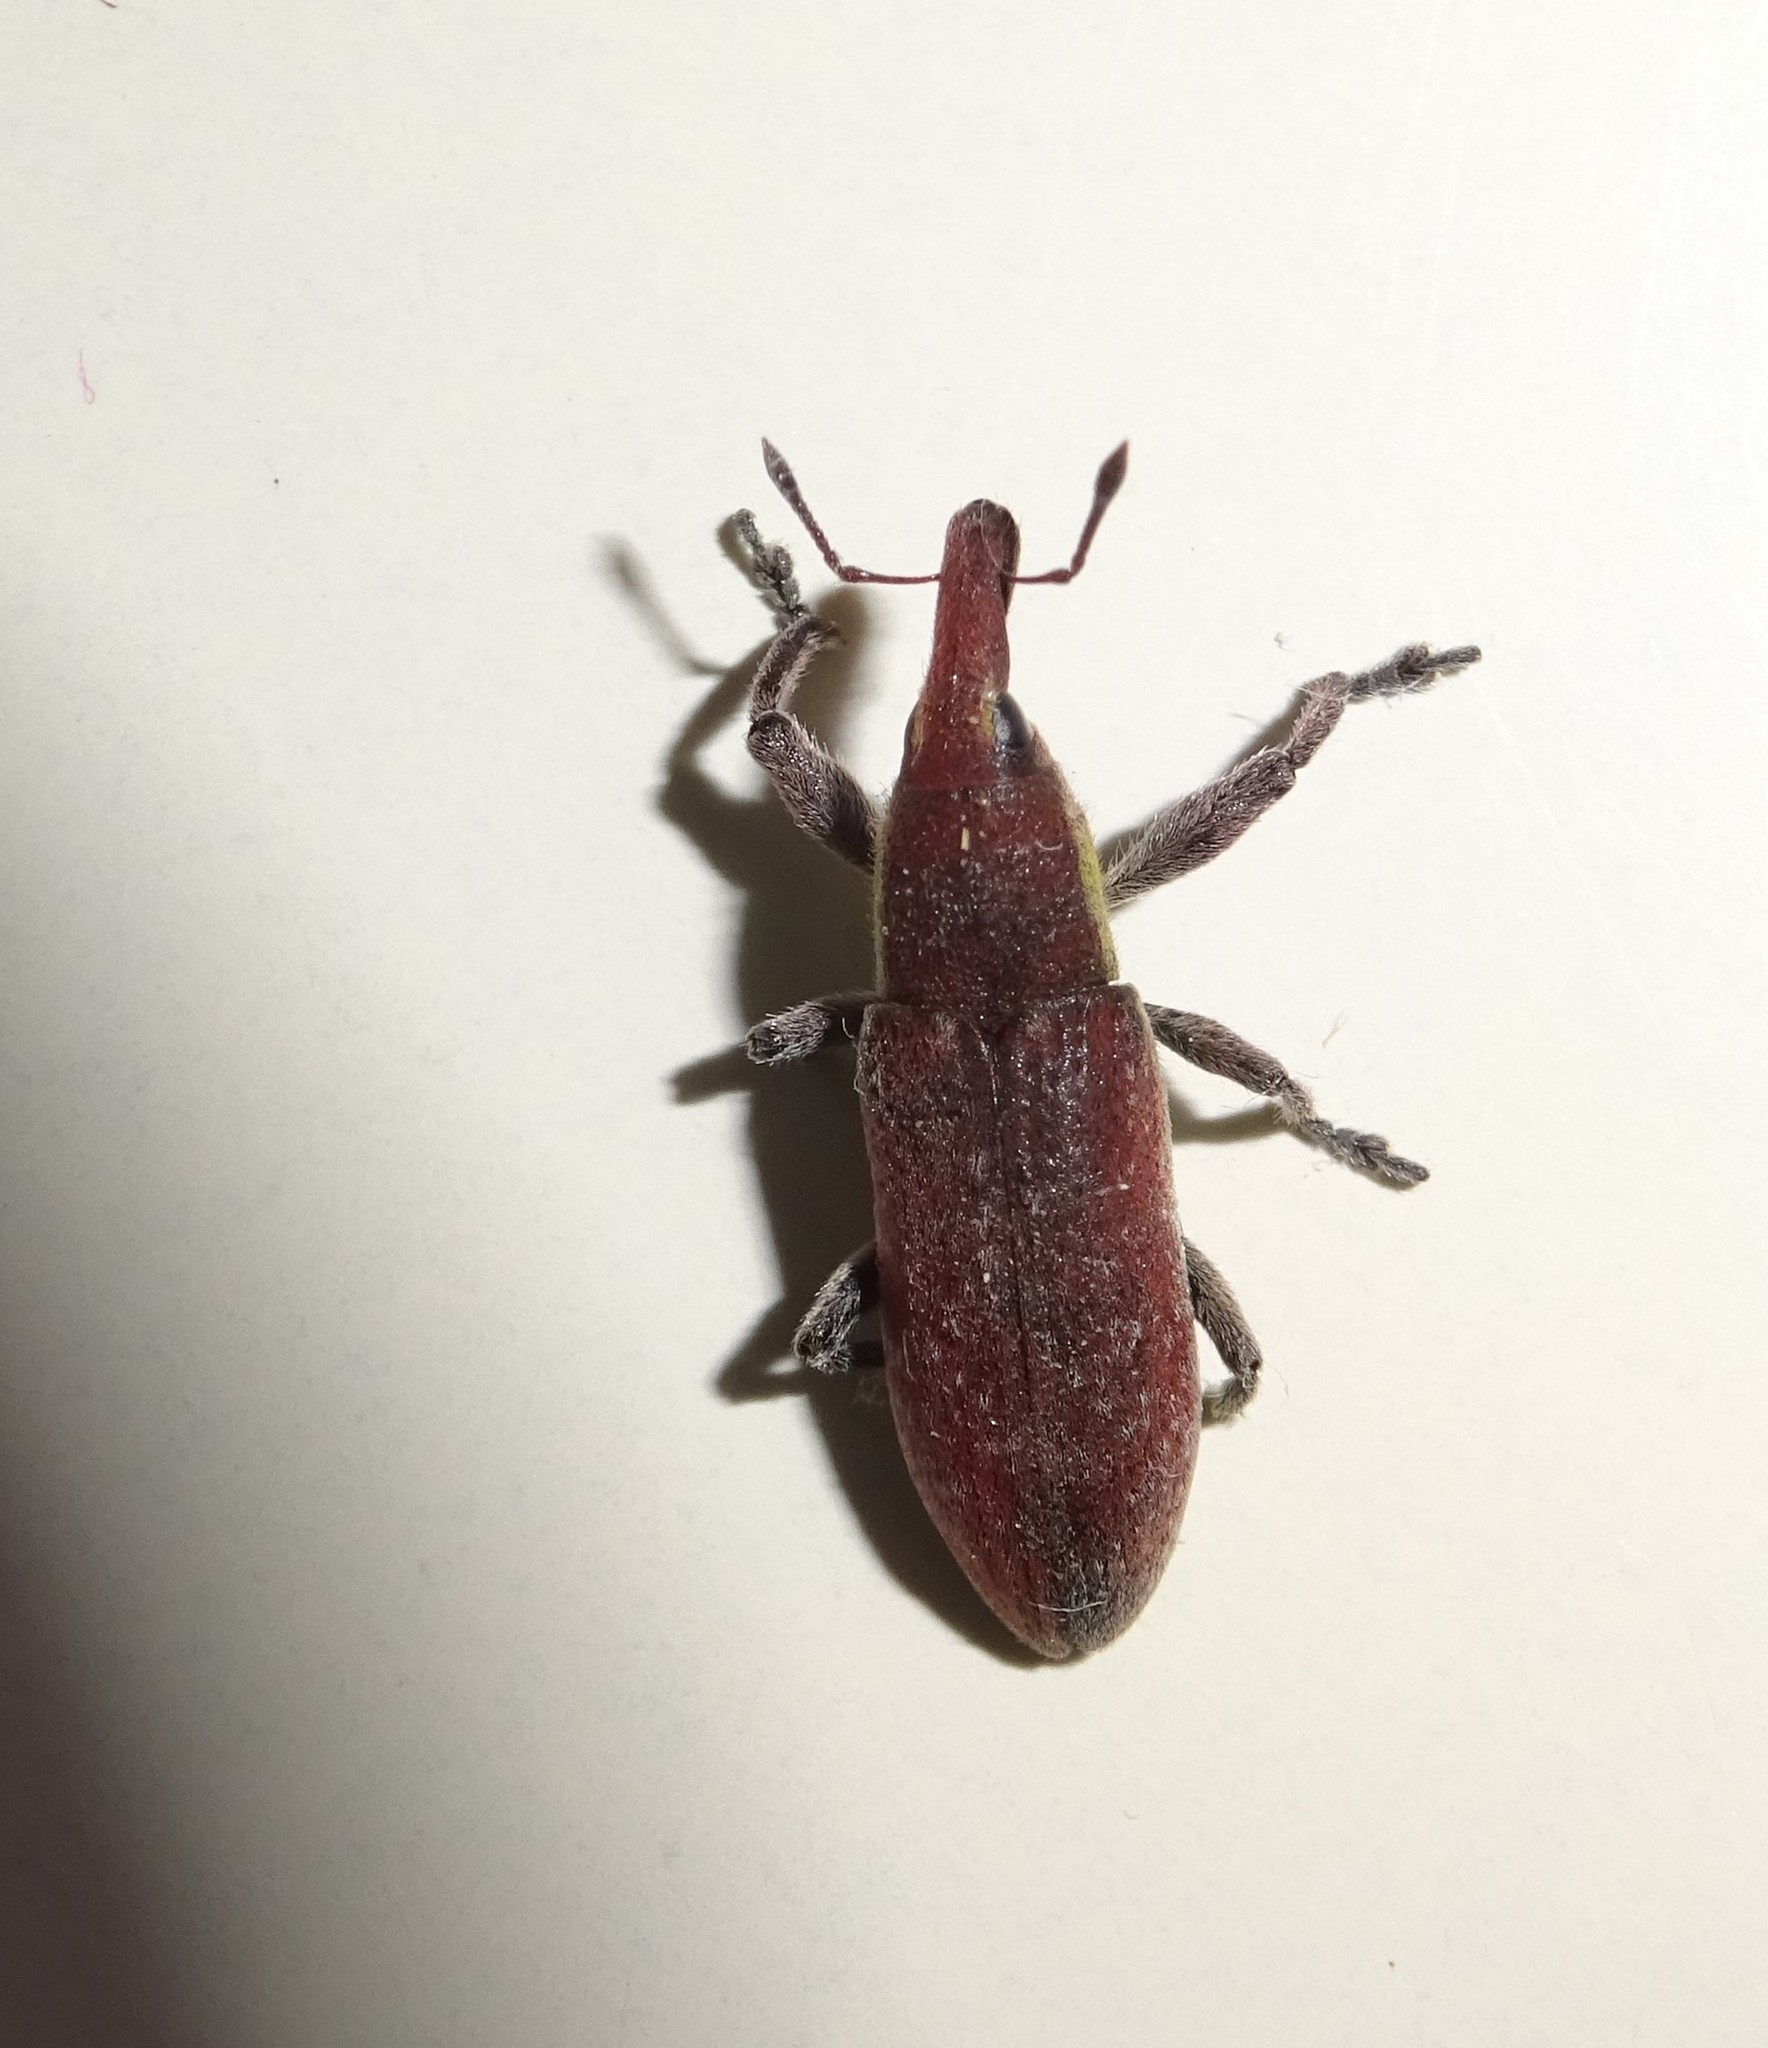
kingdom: Animalia
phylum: Arthropoda
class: Insecta
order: Coleoptera
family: Curculionidae
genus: Lixus
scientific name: Lixus vilis
